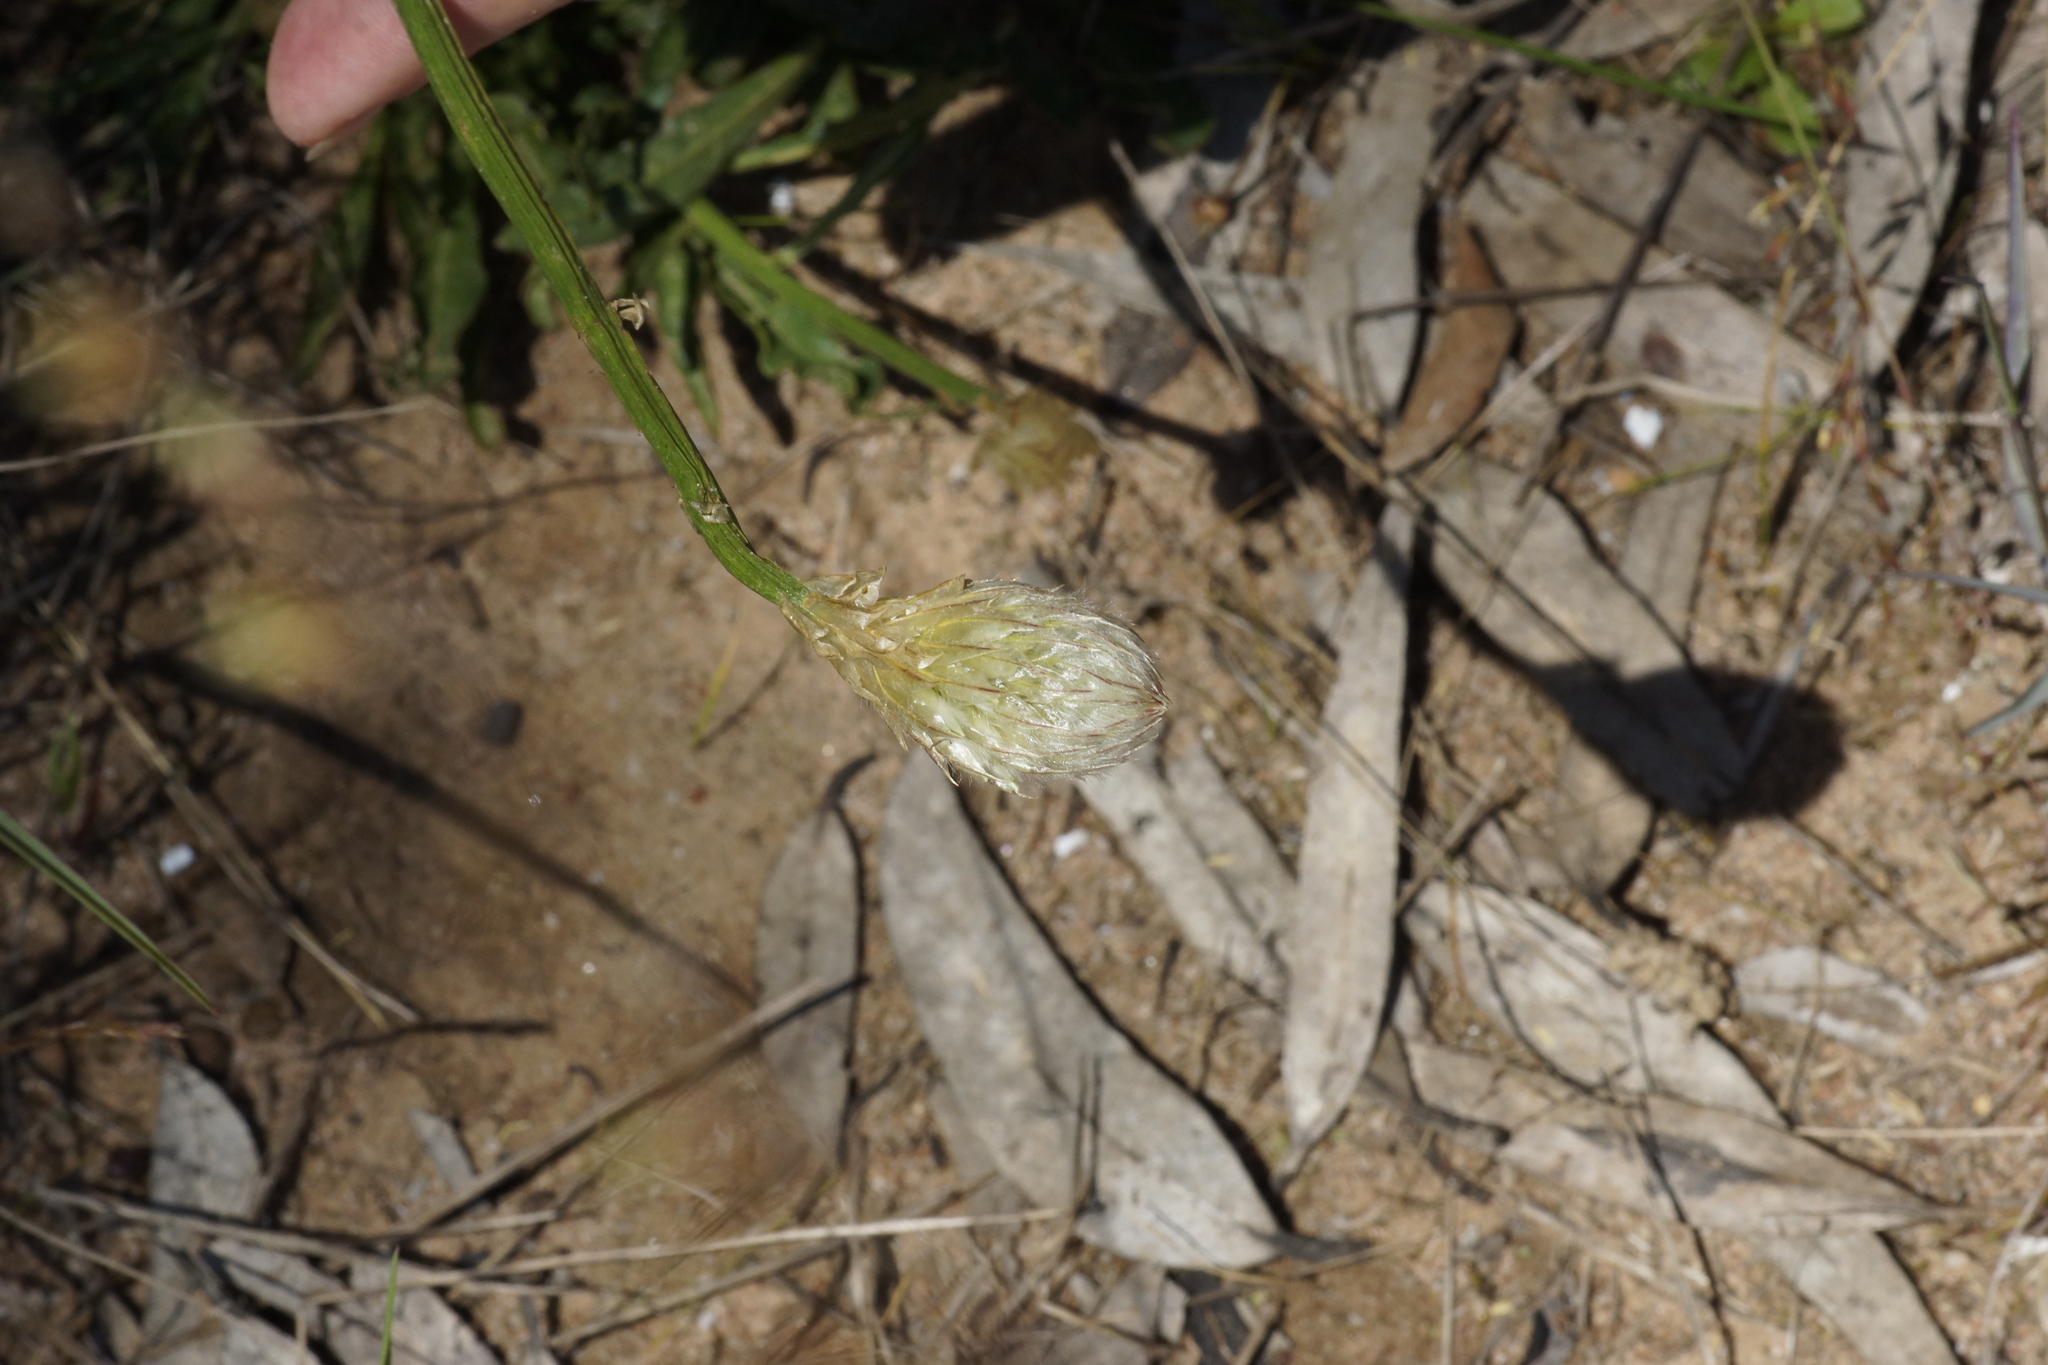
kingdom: Plantae
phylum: Tracheophyta
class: Magnoliopsida
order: Caryophyllales
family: Amaranthaceae
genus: Ptilotus
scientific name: Ptilotus macrocephalus
